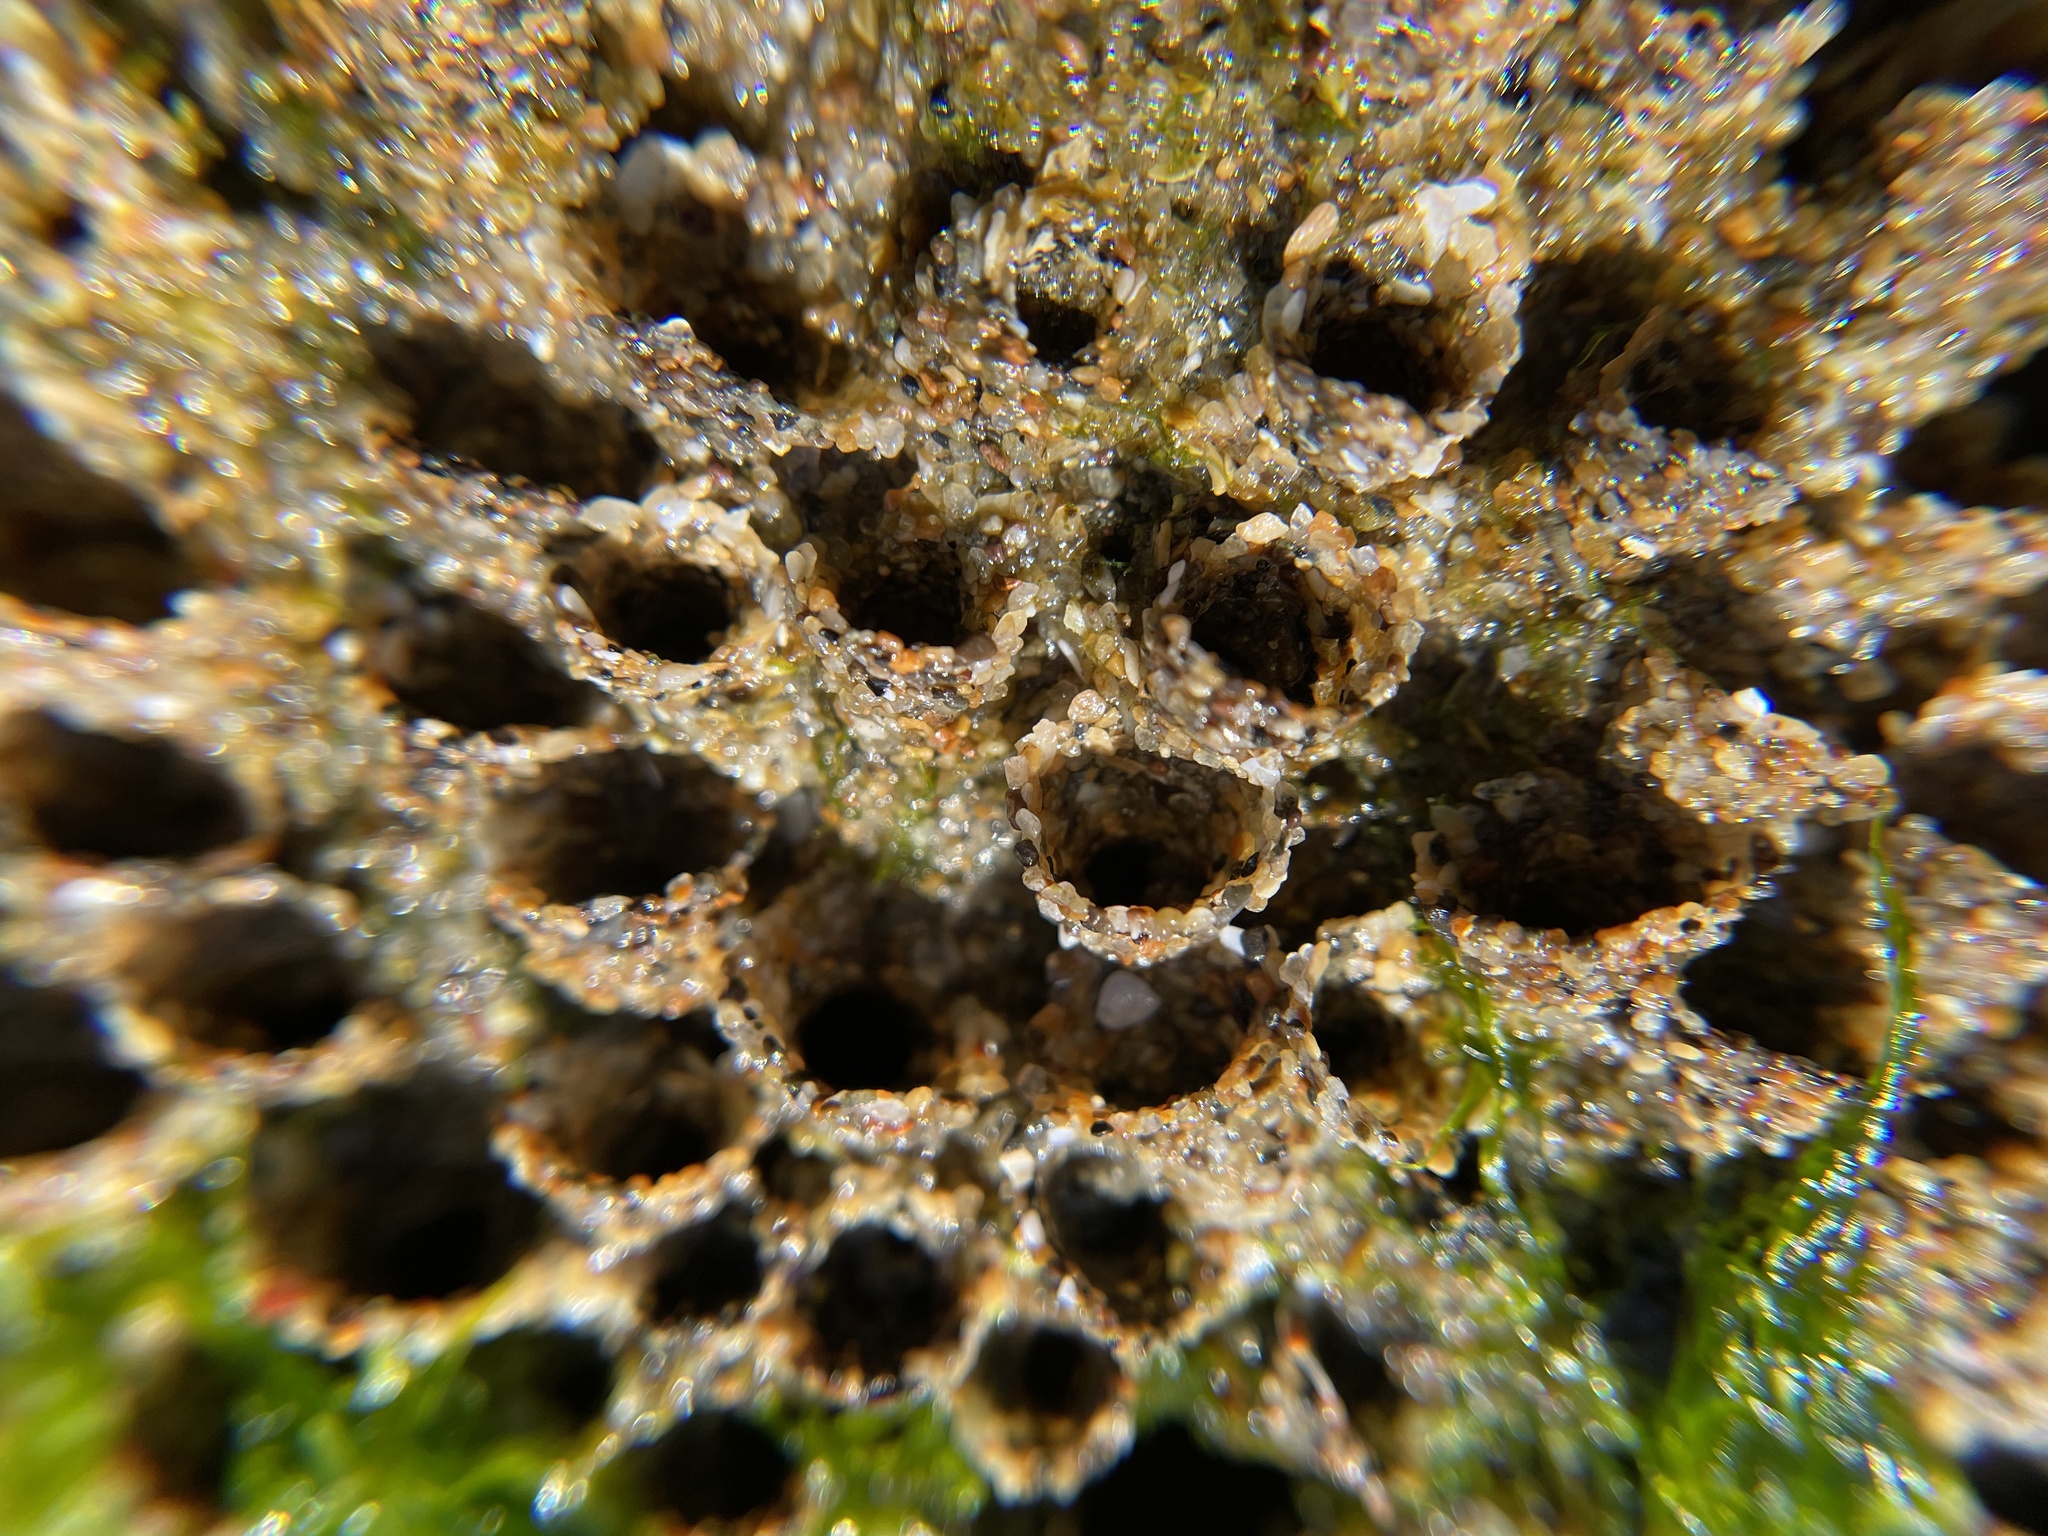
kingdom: Animalia
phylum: Annelida
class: Polychaeta
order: Sabellida
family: Sabellariidae
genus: Phragmatopoma
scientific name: Phragmatopoma californica
